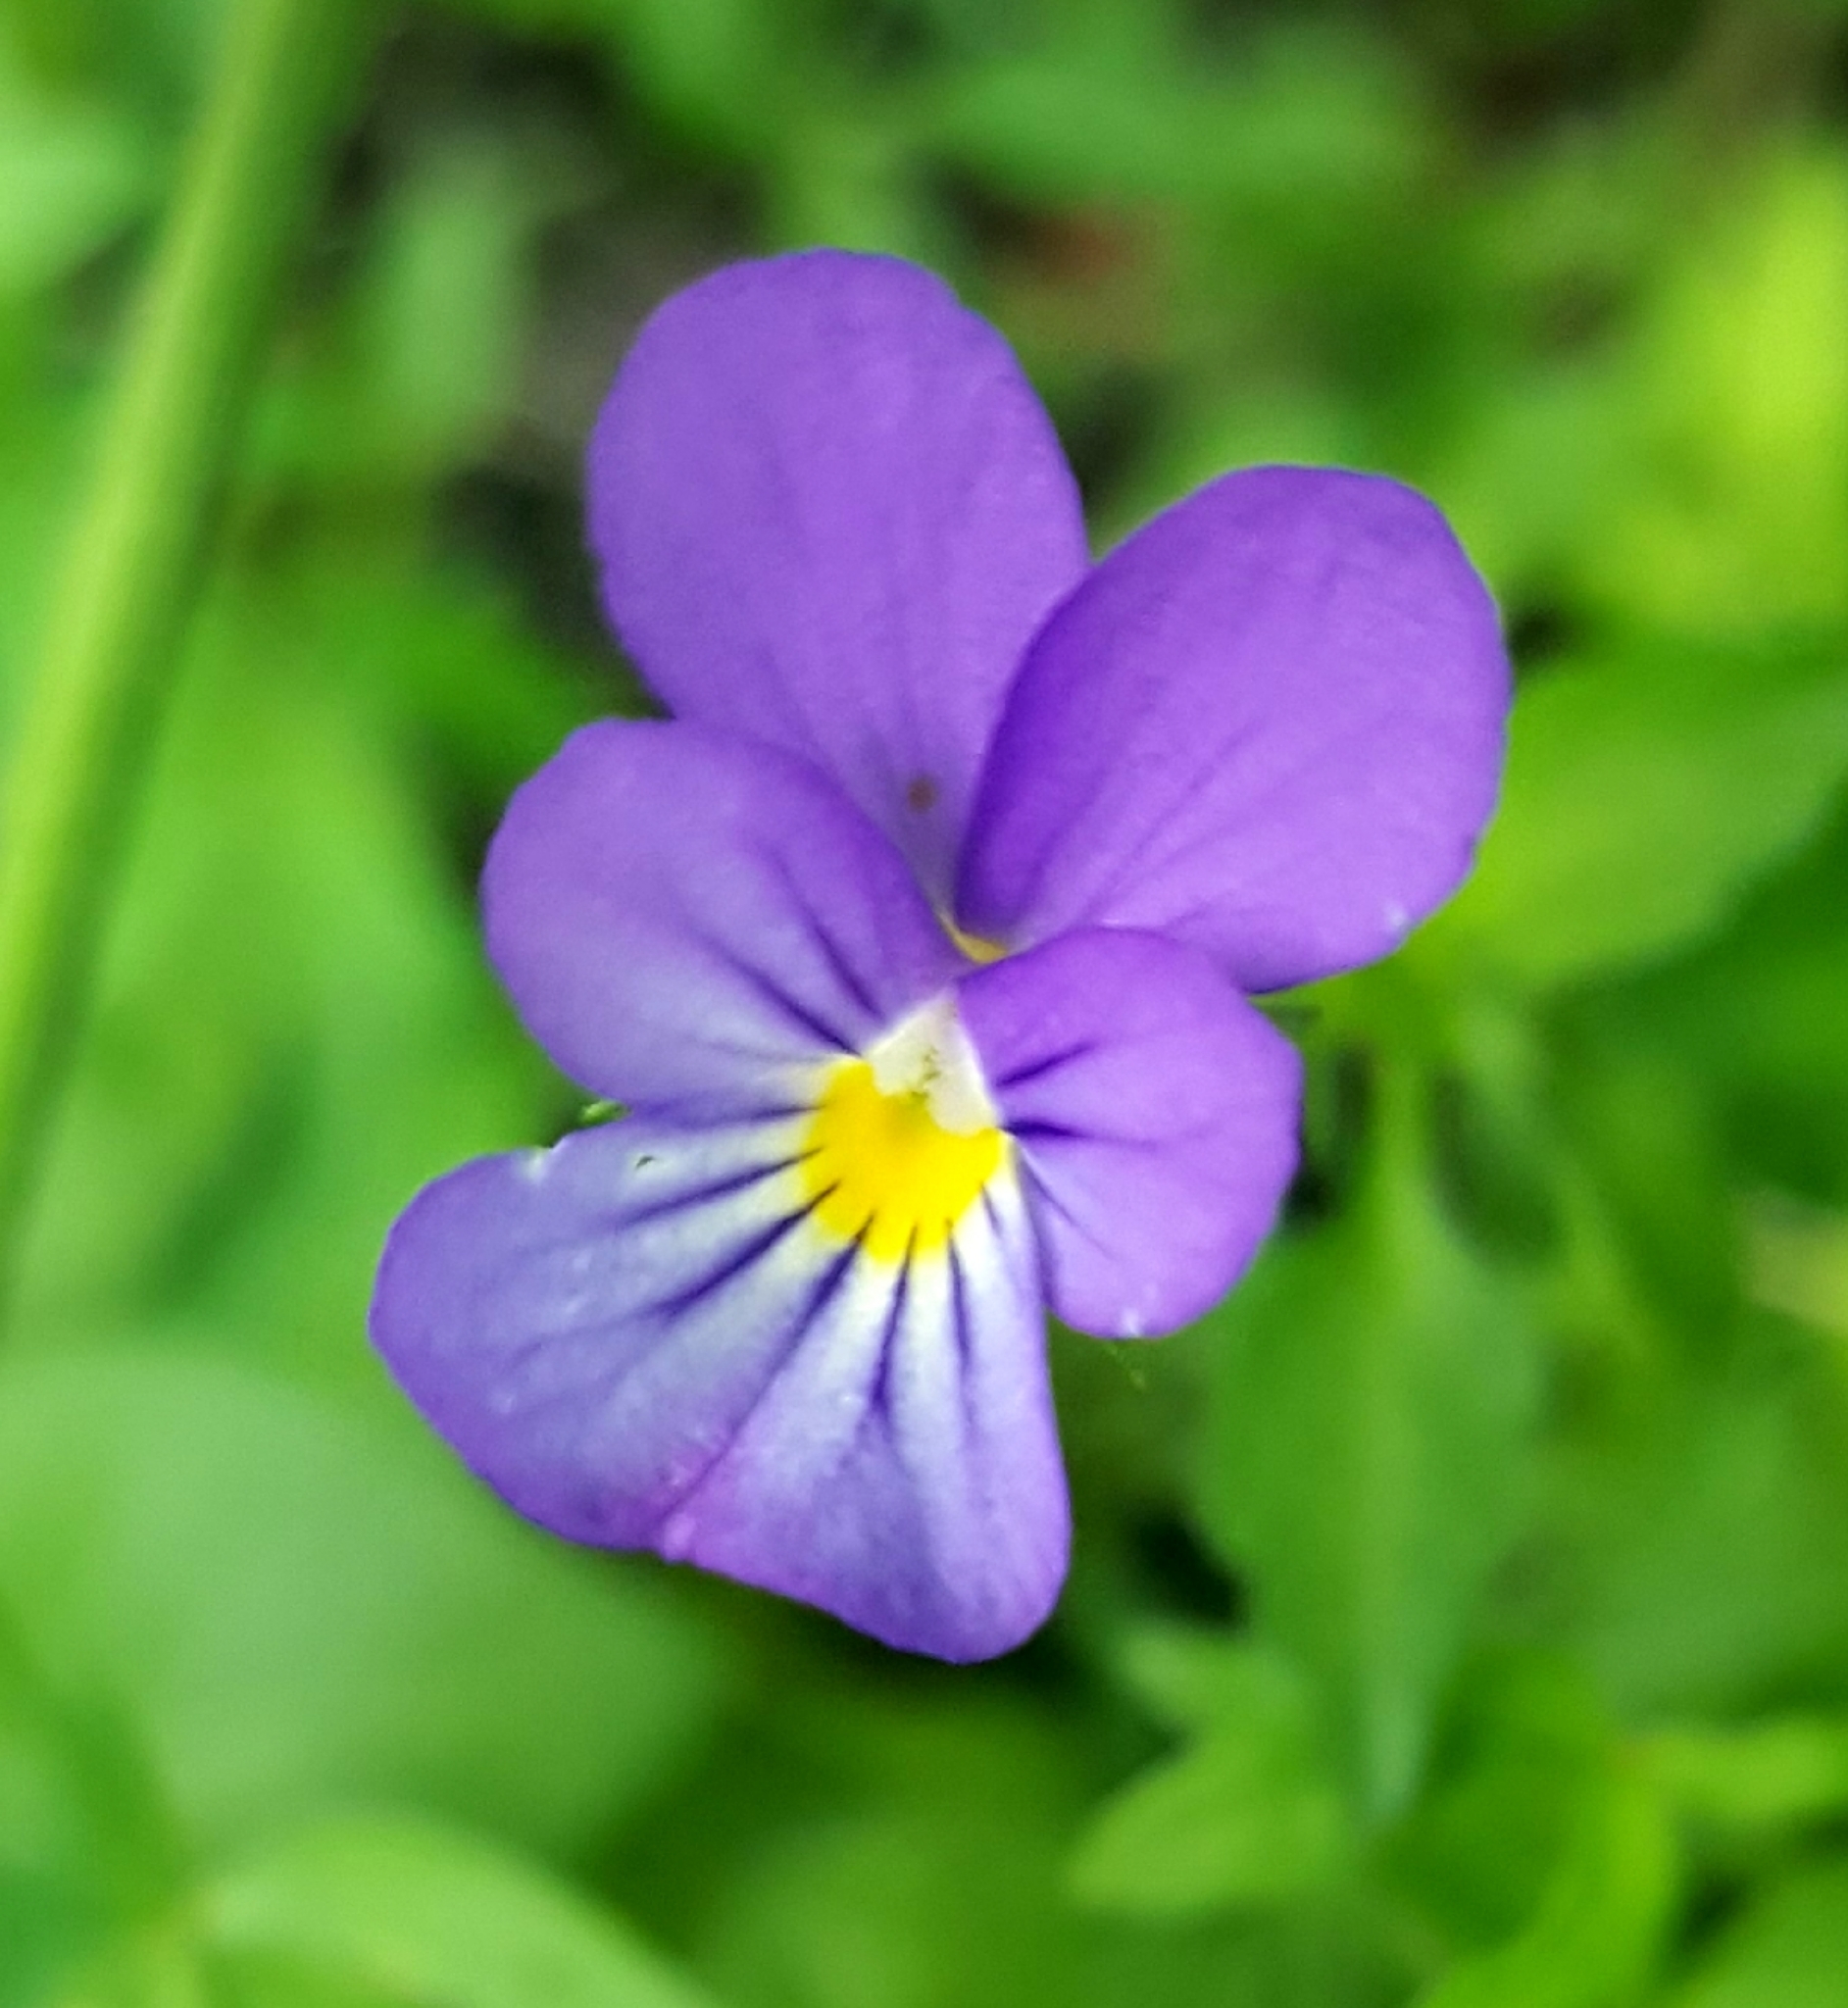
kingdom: Plantae
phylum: Tracheophyta
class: Magnoliopsida
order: Malpighiales
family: Violaceae
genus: Viola
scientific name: Viola tricolor
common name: Pansy
